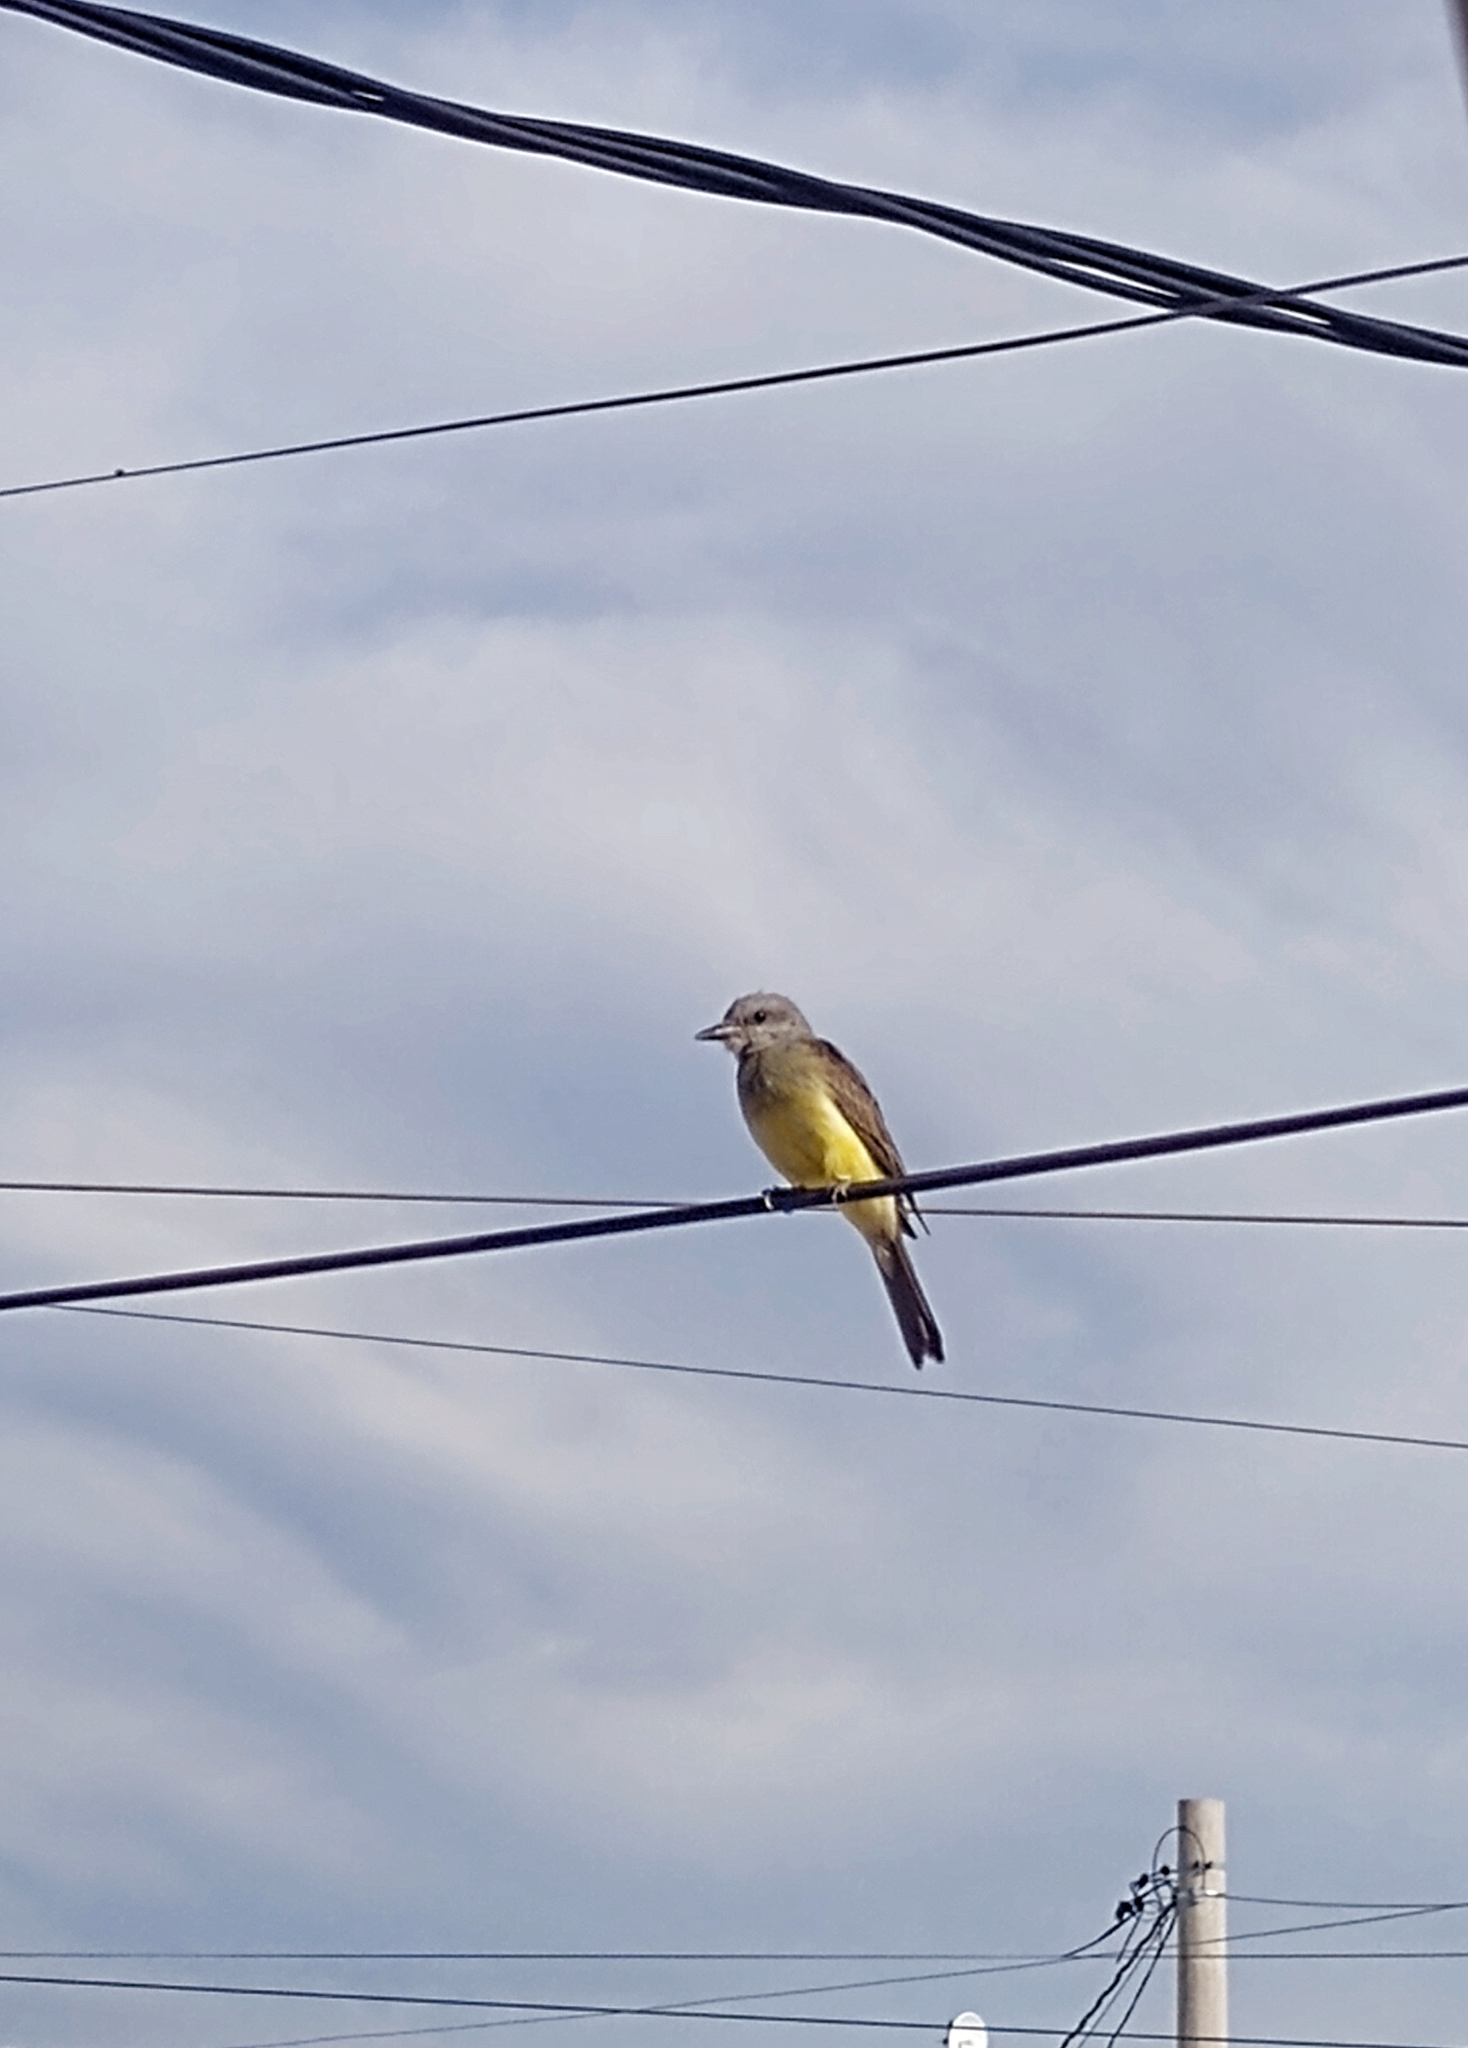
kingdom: Animalia
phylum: Chordata
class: Aves
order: Passeriformes
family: Tyrannidae
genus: Tyrannus
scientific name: Tyrannus melancholicus
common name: Tropical kingbird
